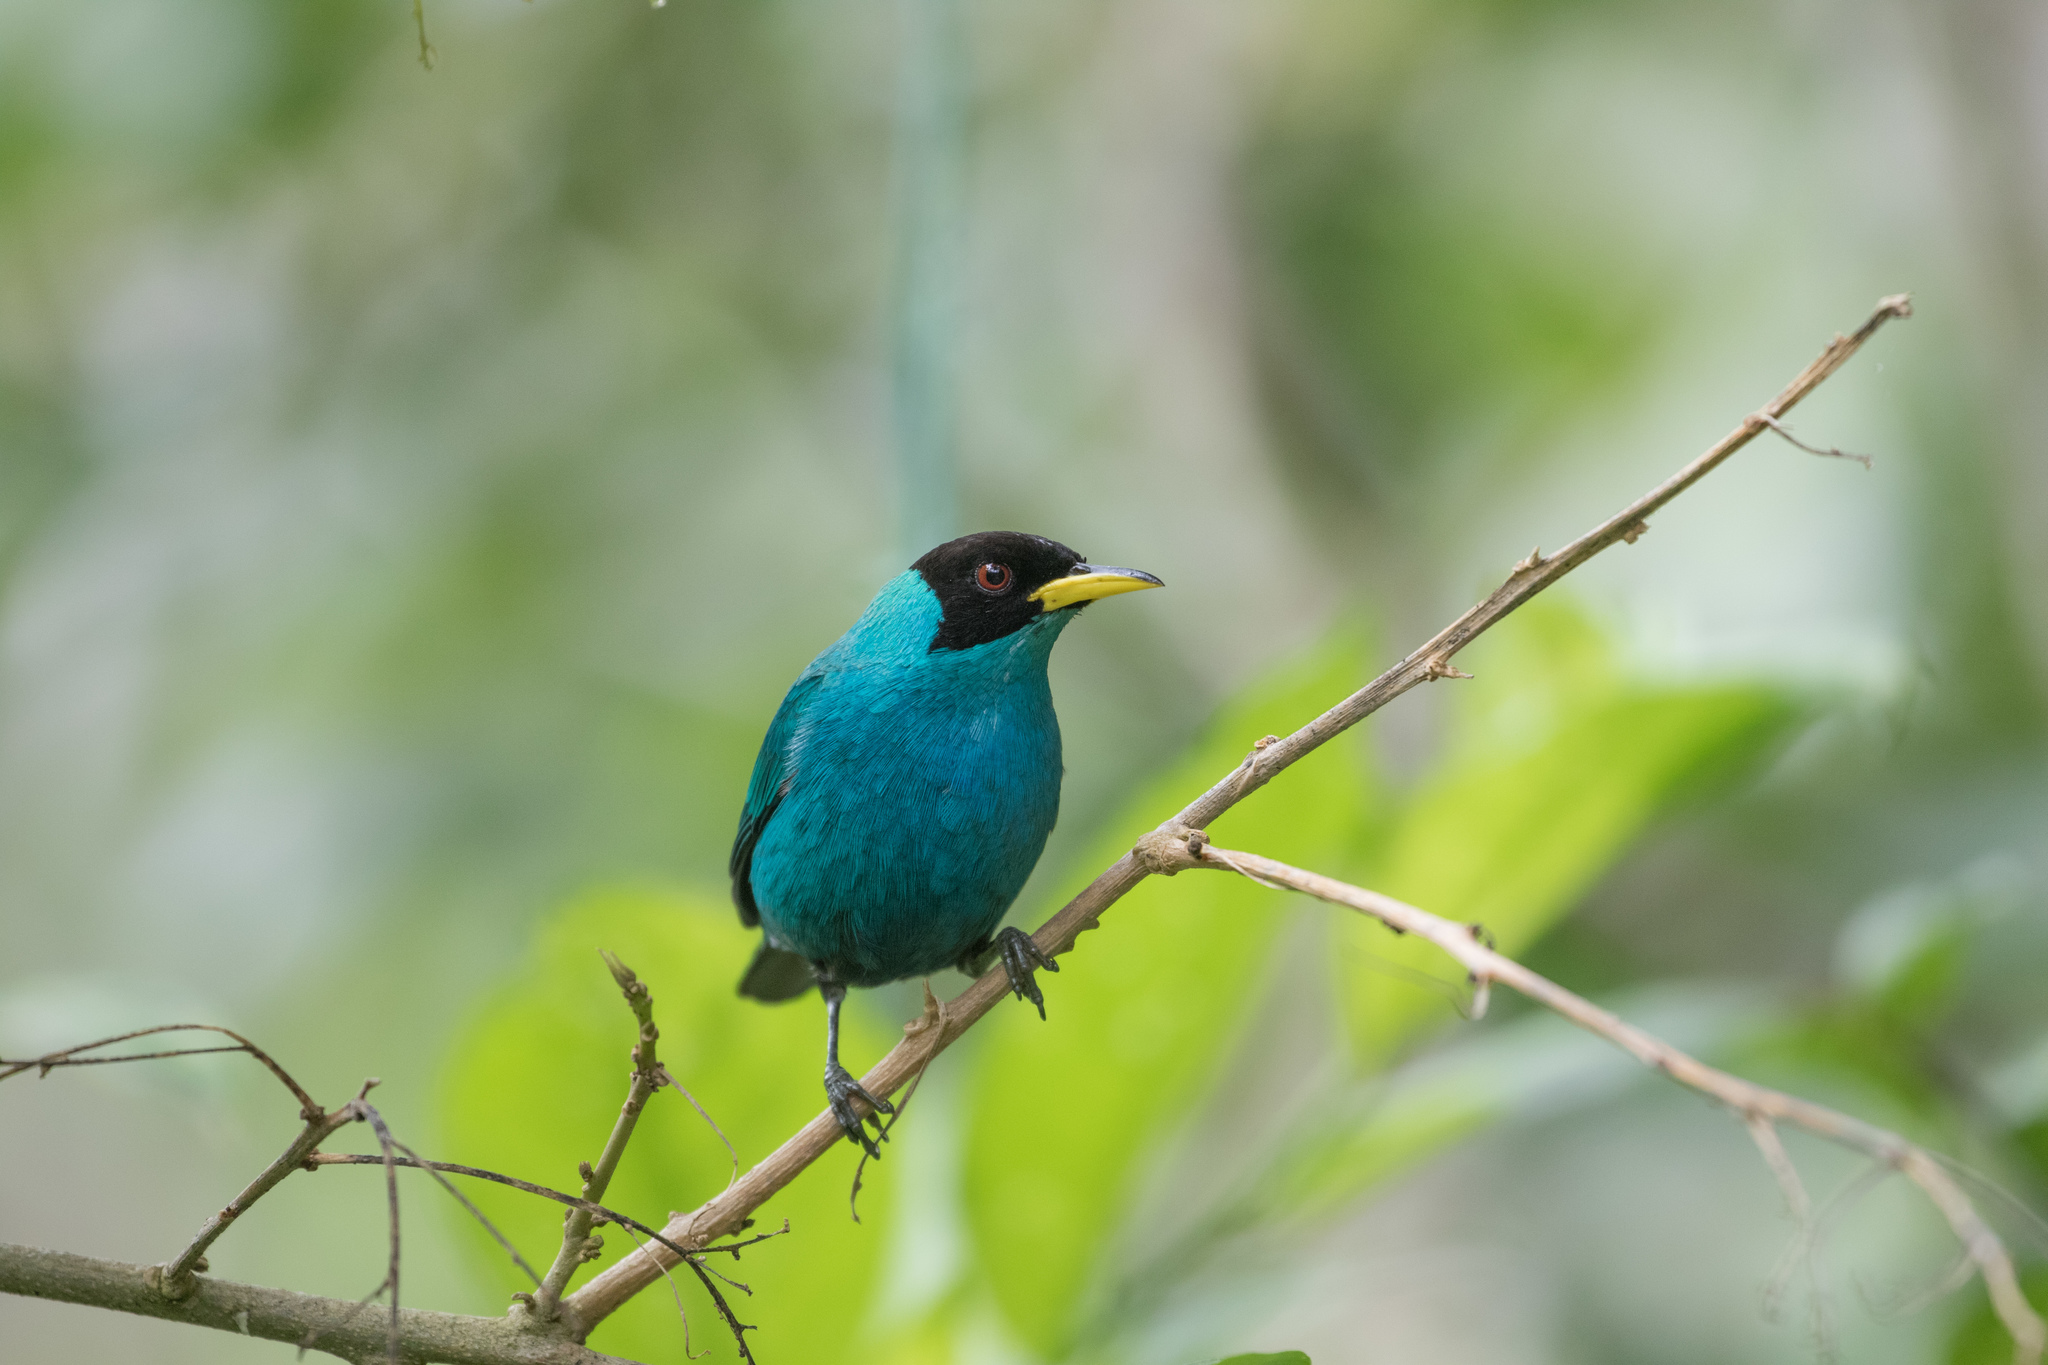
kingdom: Animalia
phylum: Chordata
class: Aves
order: Passeriformes
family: Thraupidae
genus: Chlorophanes
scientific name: Chlorophanes spiza
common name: Green honeycreeper
